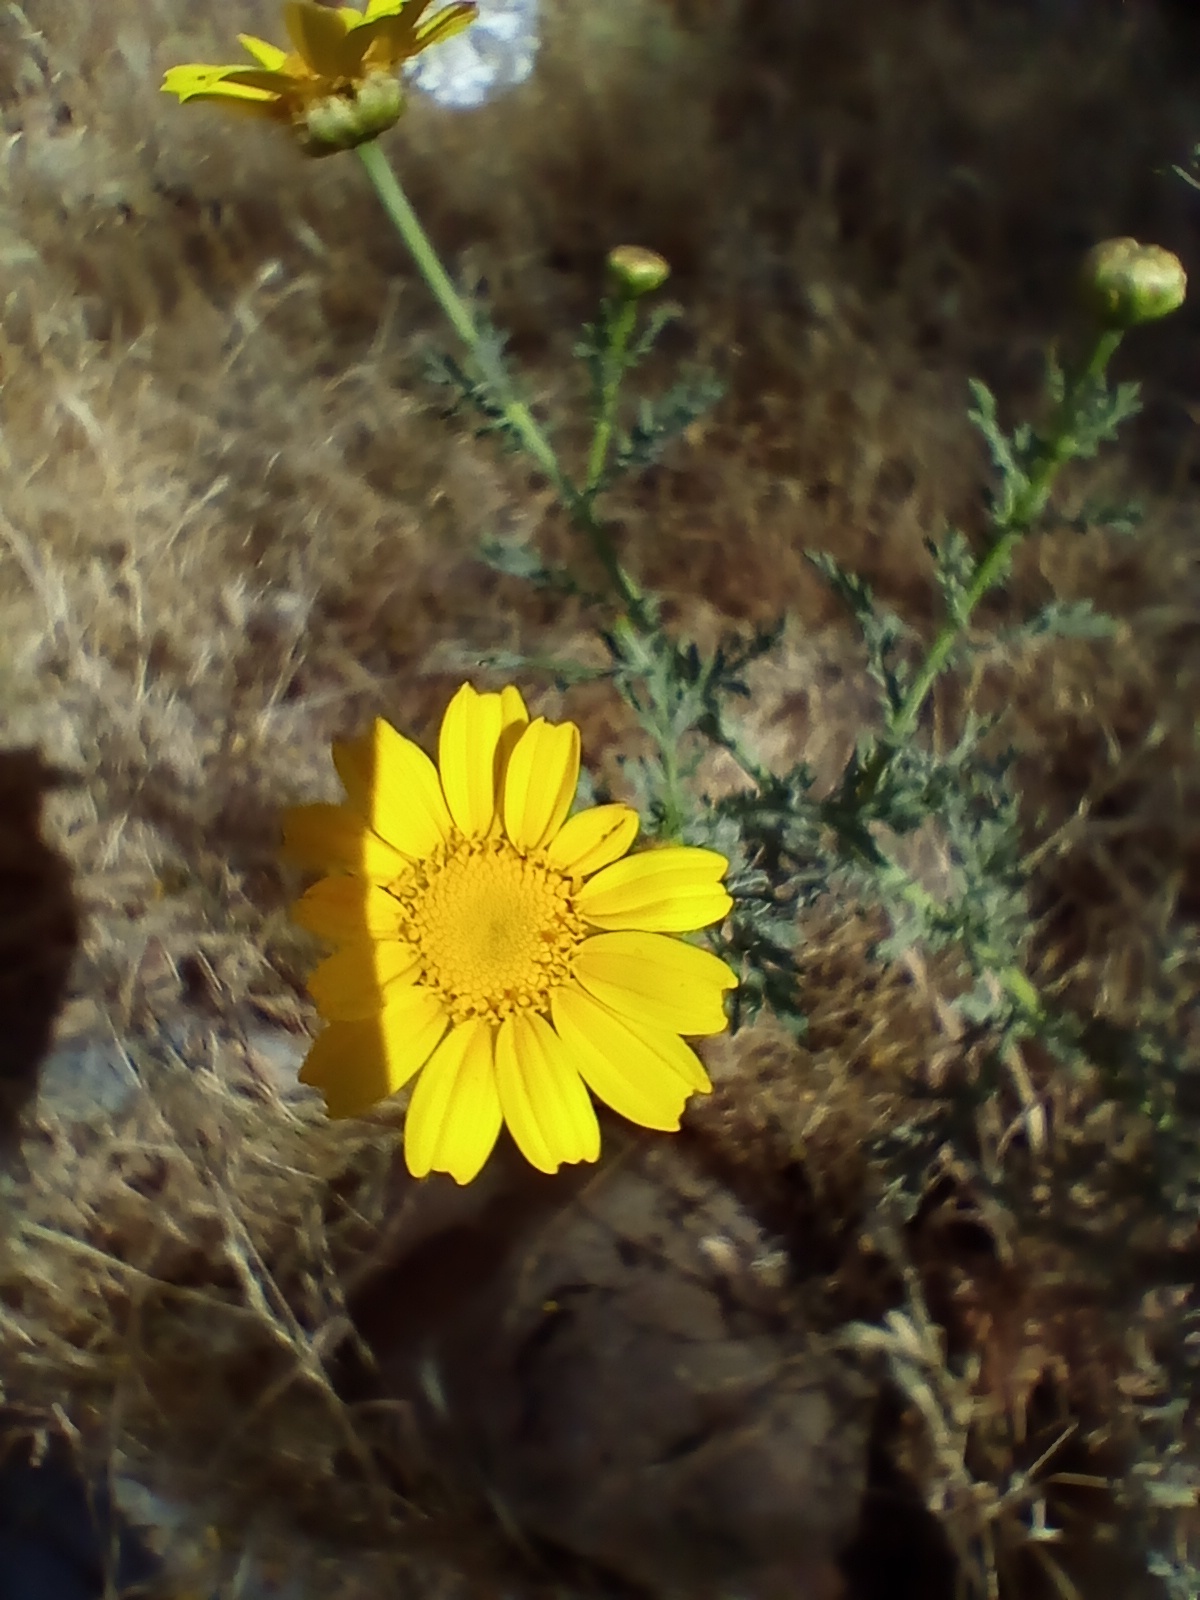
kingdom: Plantae
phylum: Tracheophyta
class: Magnoliopsida
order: Asterales
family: Asteraceae
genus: Glebionis
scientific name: Glebionis coronaria
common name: Crowndaisy
